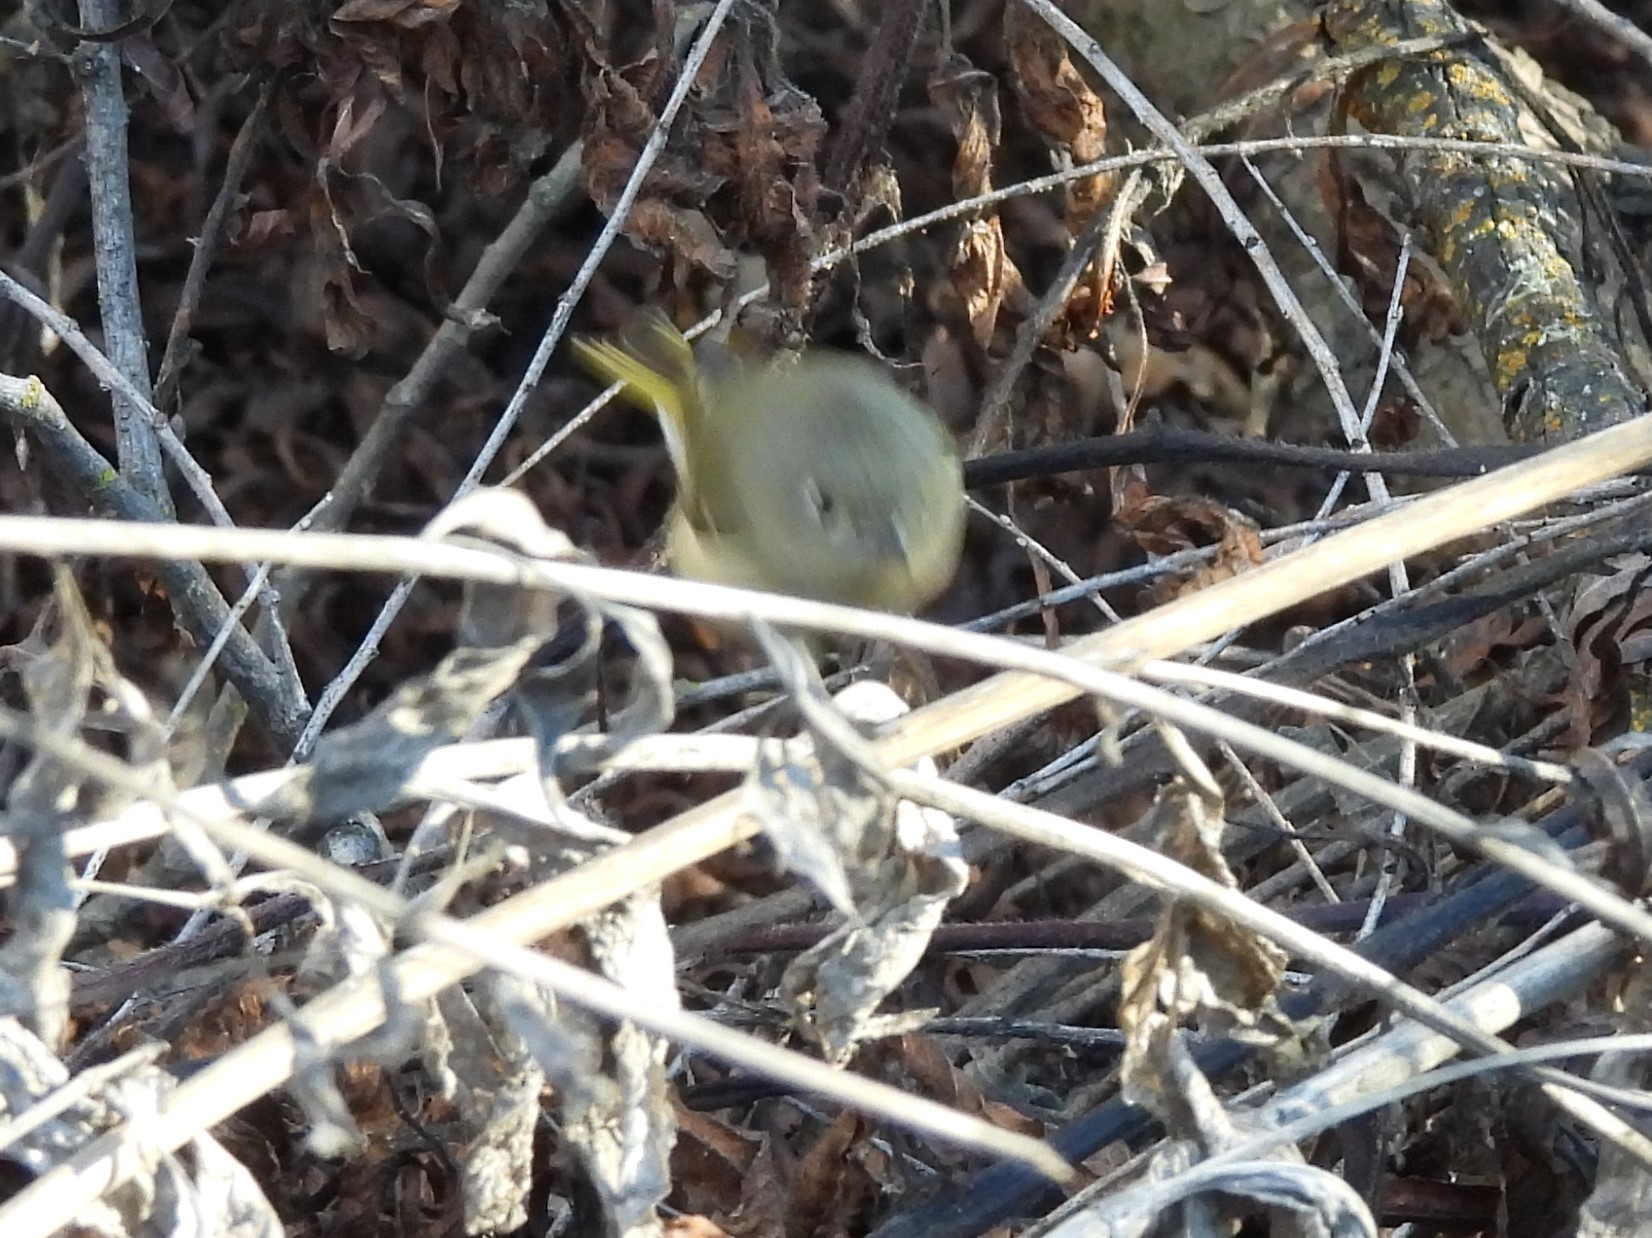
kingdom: Animalia
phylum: Chordata
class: Aves
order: Passeriformes
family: Regulidae
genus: Regulus
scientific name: Regulus calendula
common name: Ruby-crowned kinglet
